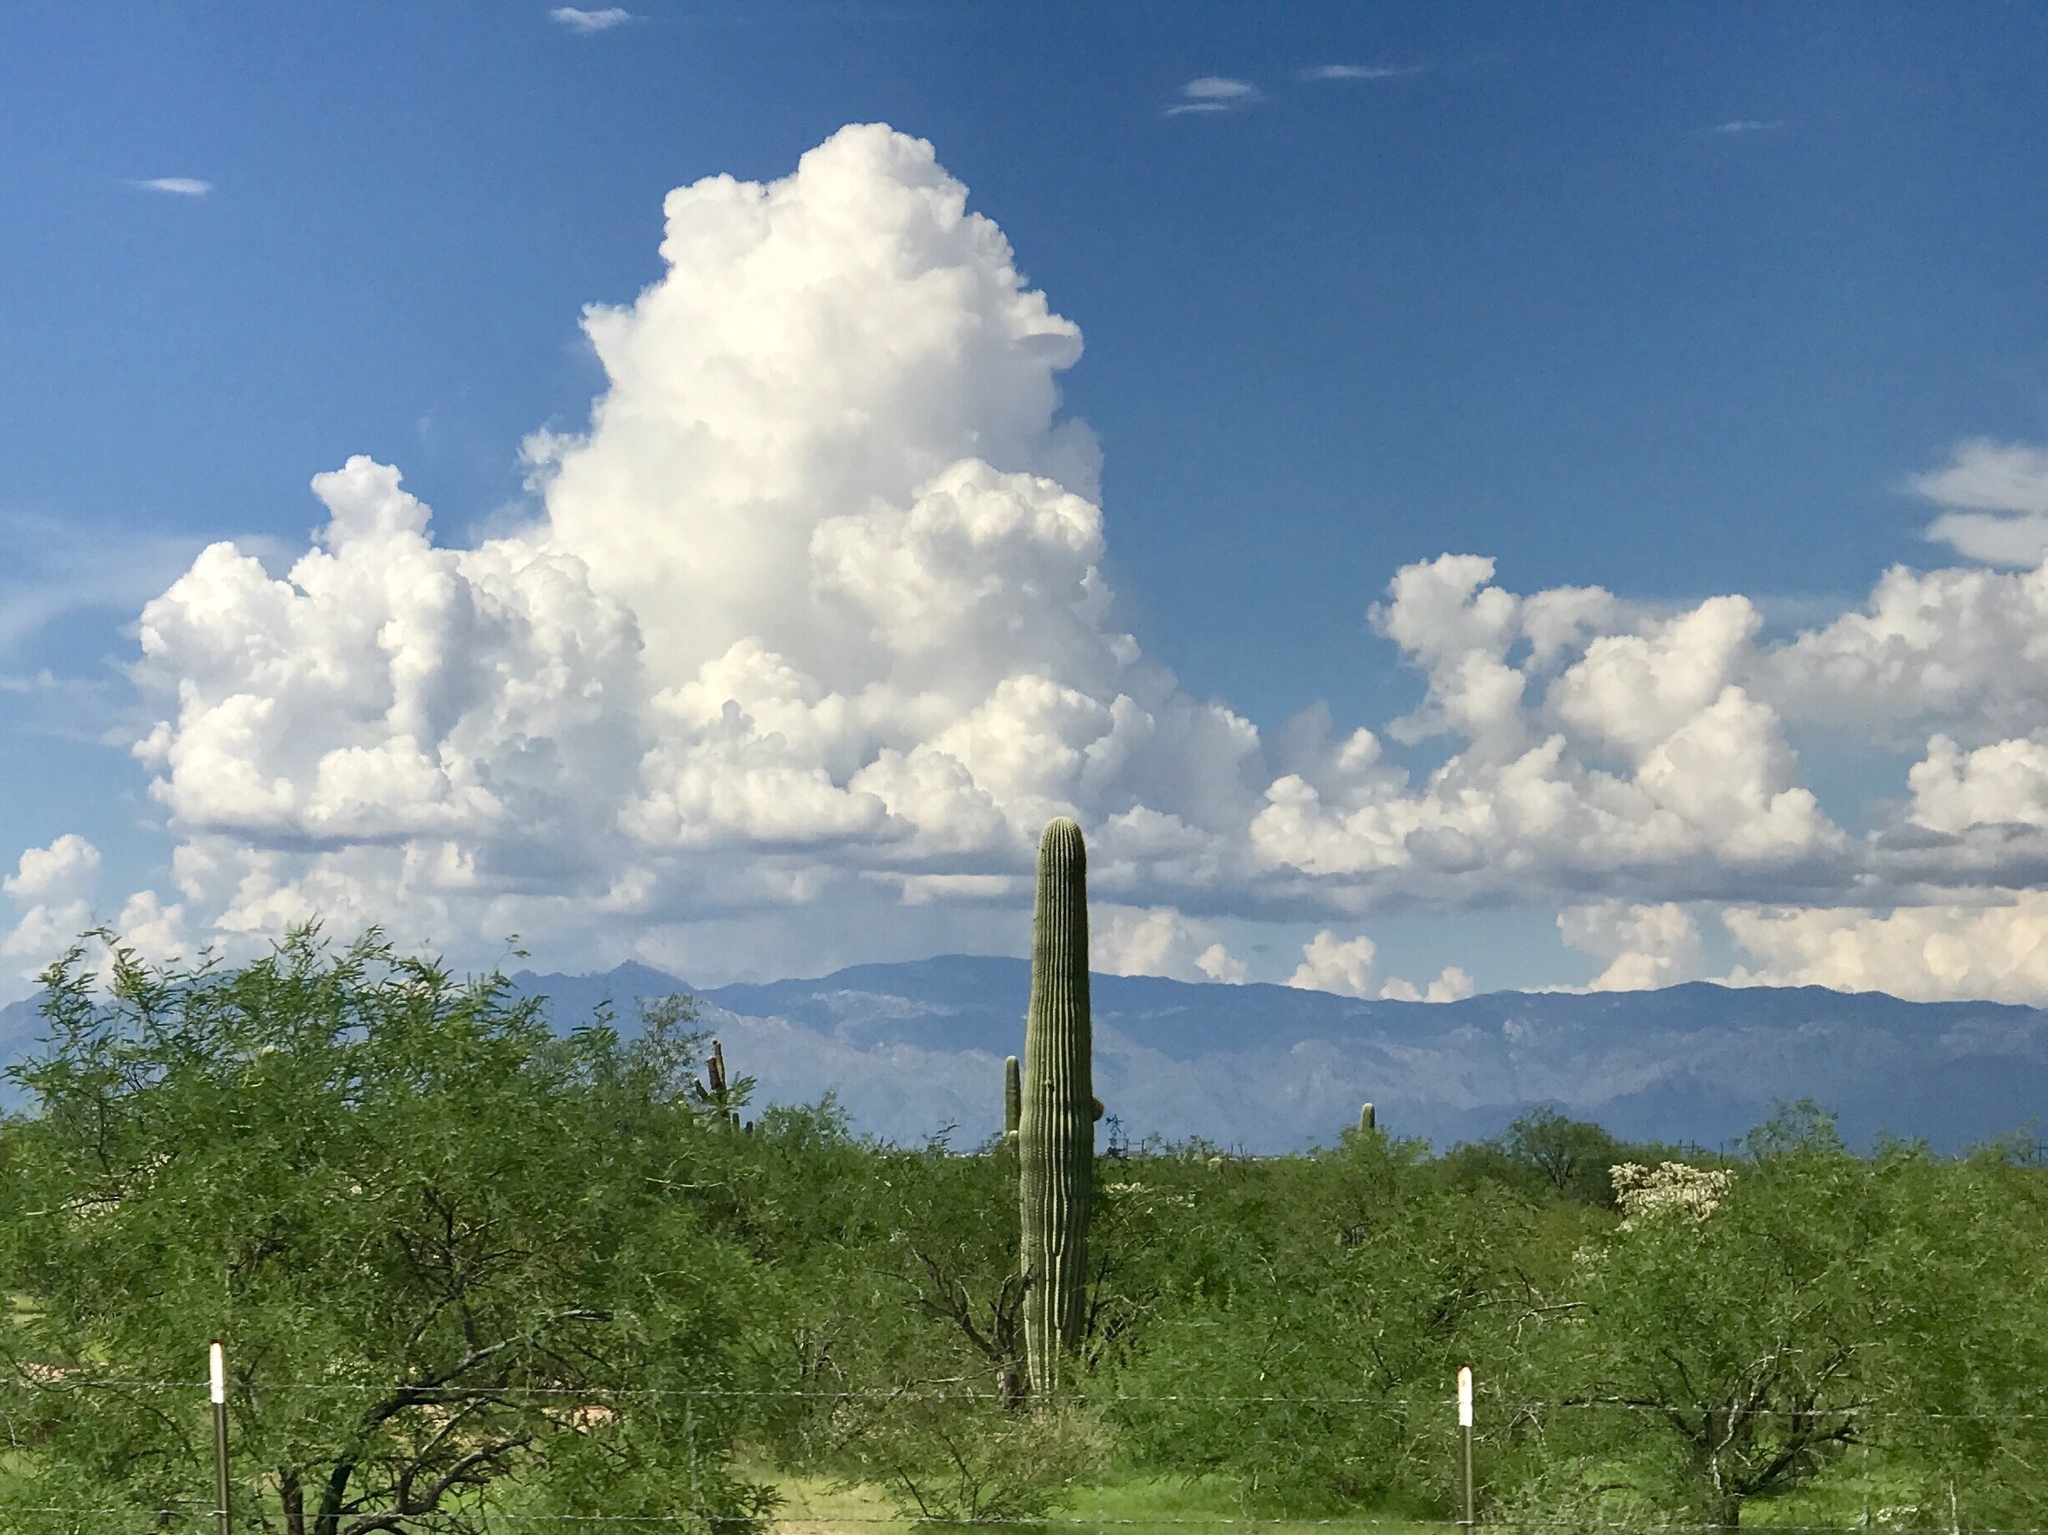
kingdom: Plantae
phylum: Tracheophyta
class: Magnoliopsida
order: Caryophyllales
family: Cactaceae
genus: Carnegiea
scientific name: Carnegiea gigantea
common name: Saguaro
